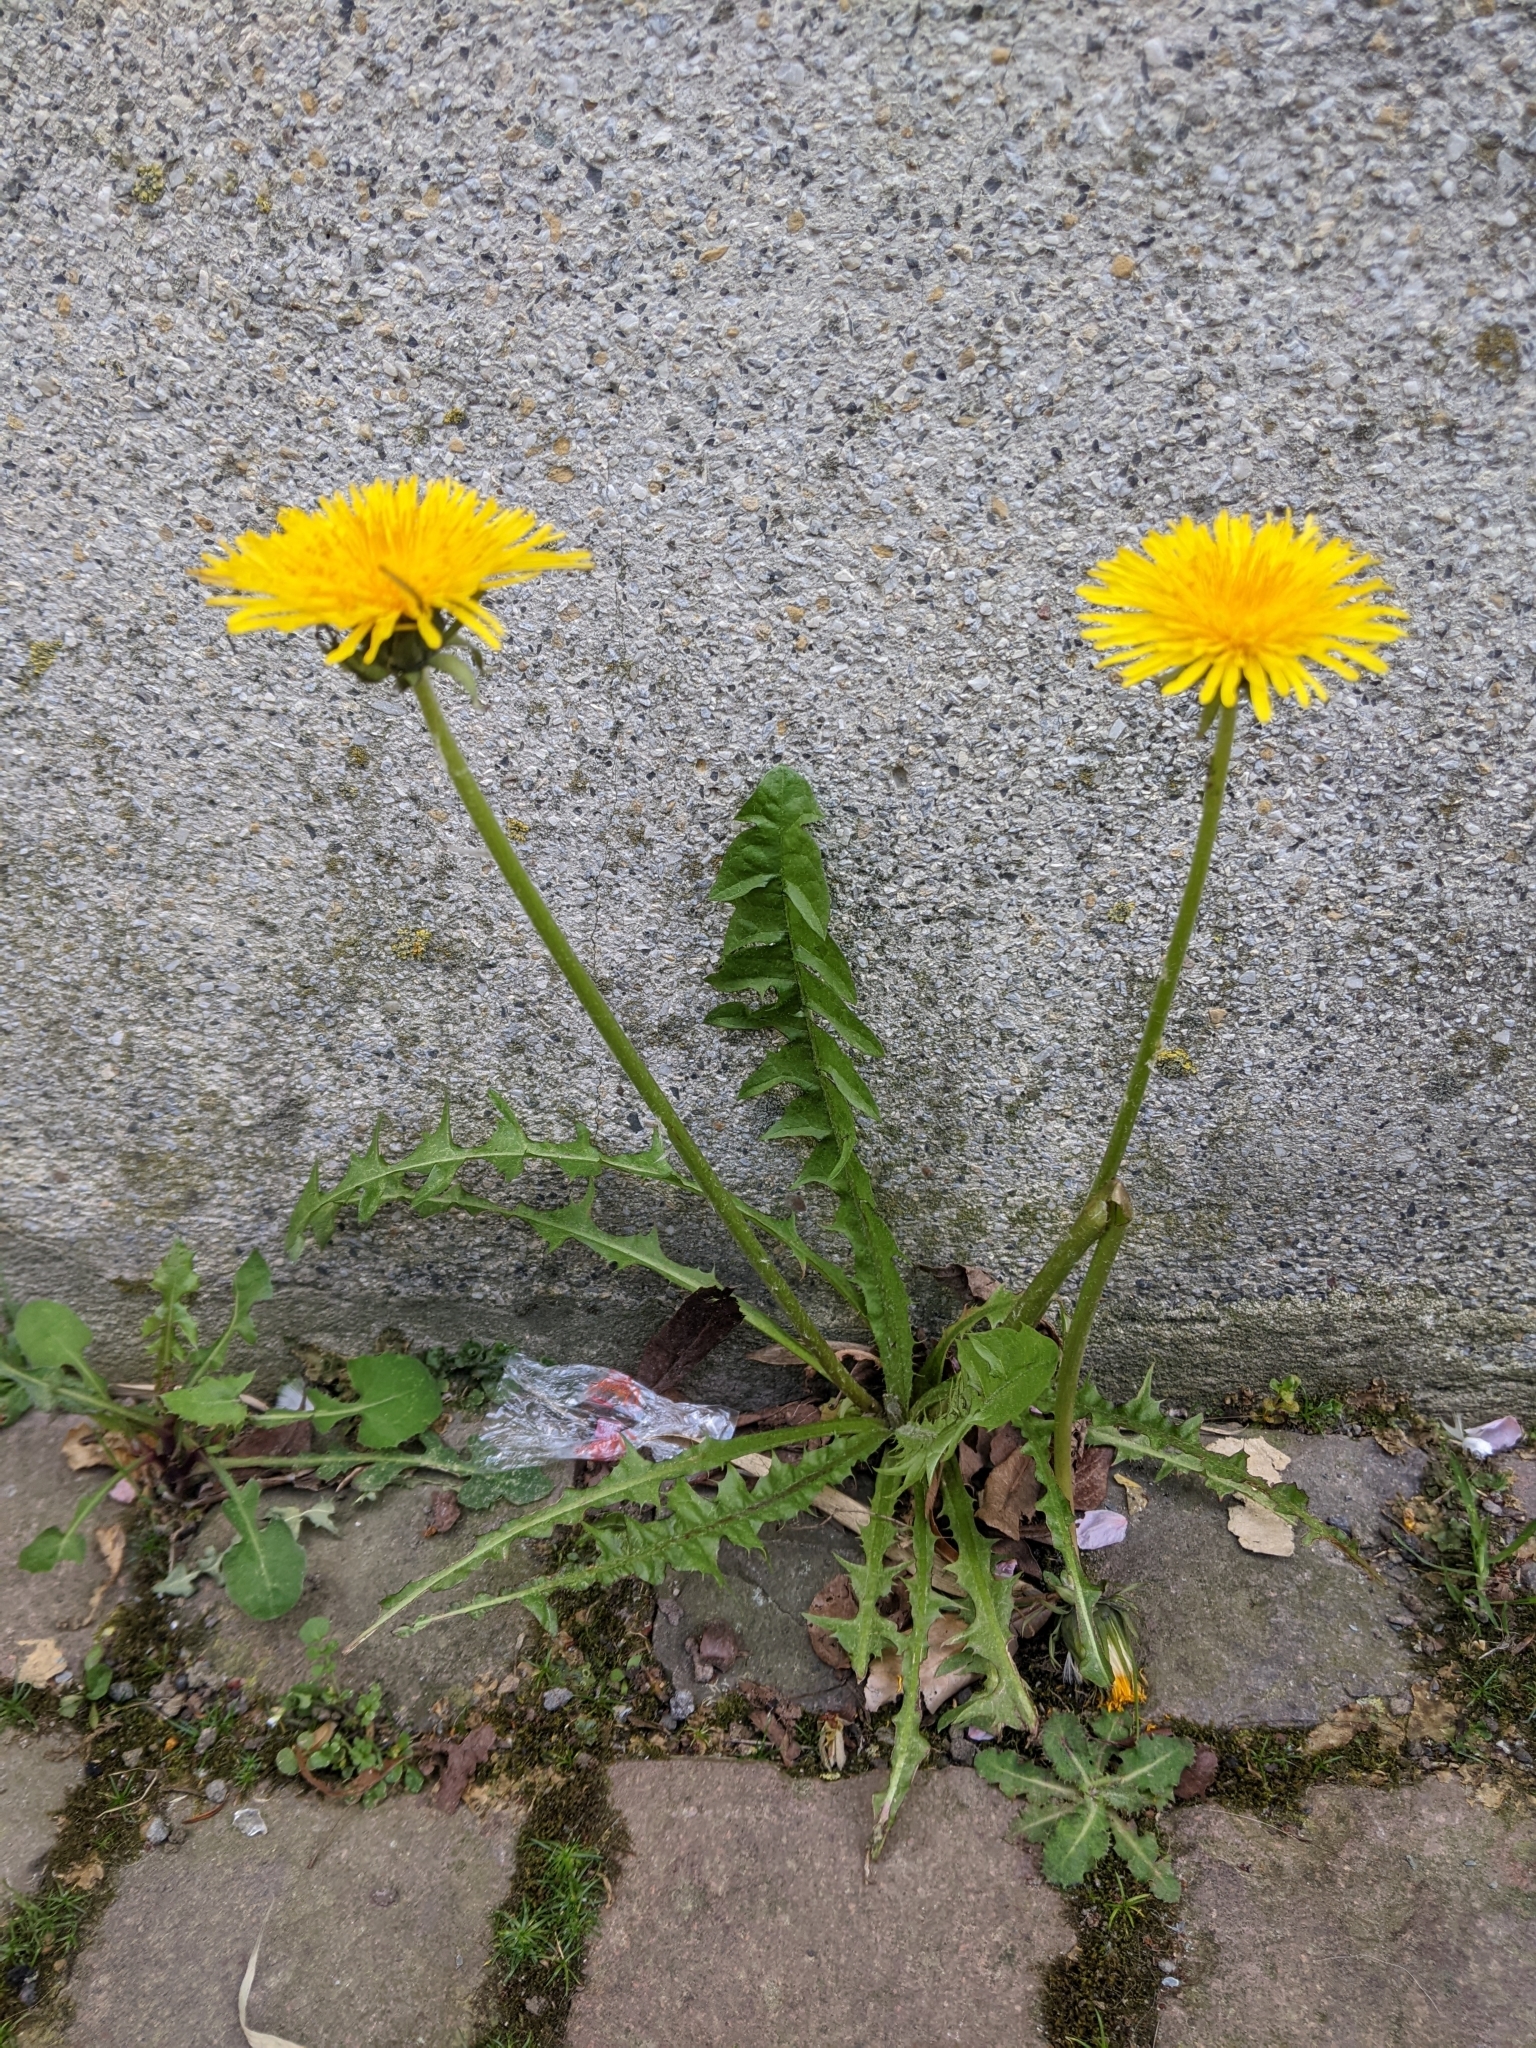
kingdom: Plantae
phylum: Tracheophyta
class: Magnoliopsida
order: Asterales
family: Asteraceae
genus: Taraxacum
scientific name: Taraxacum
